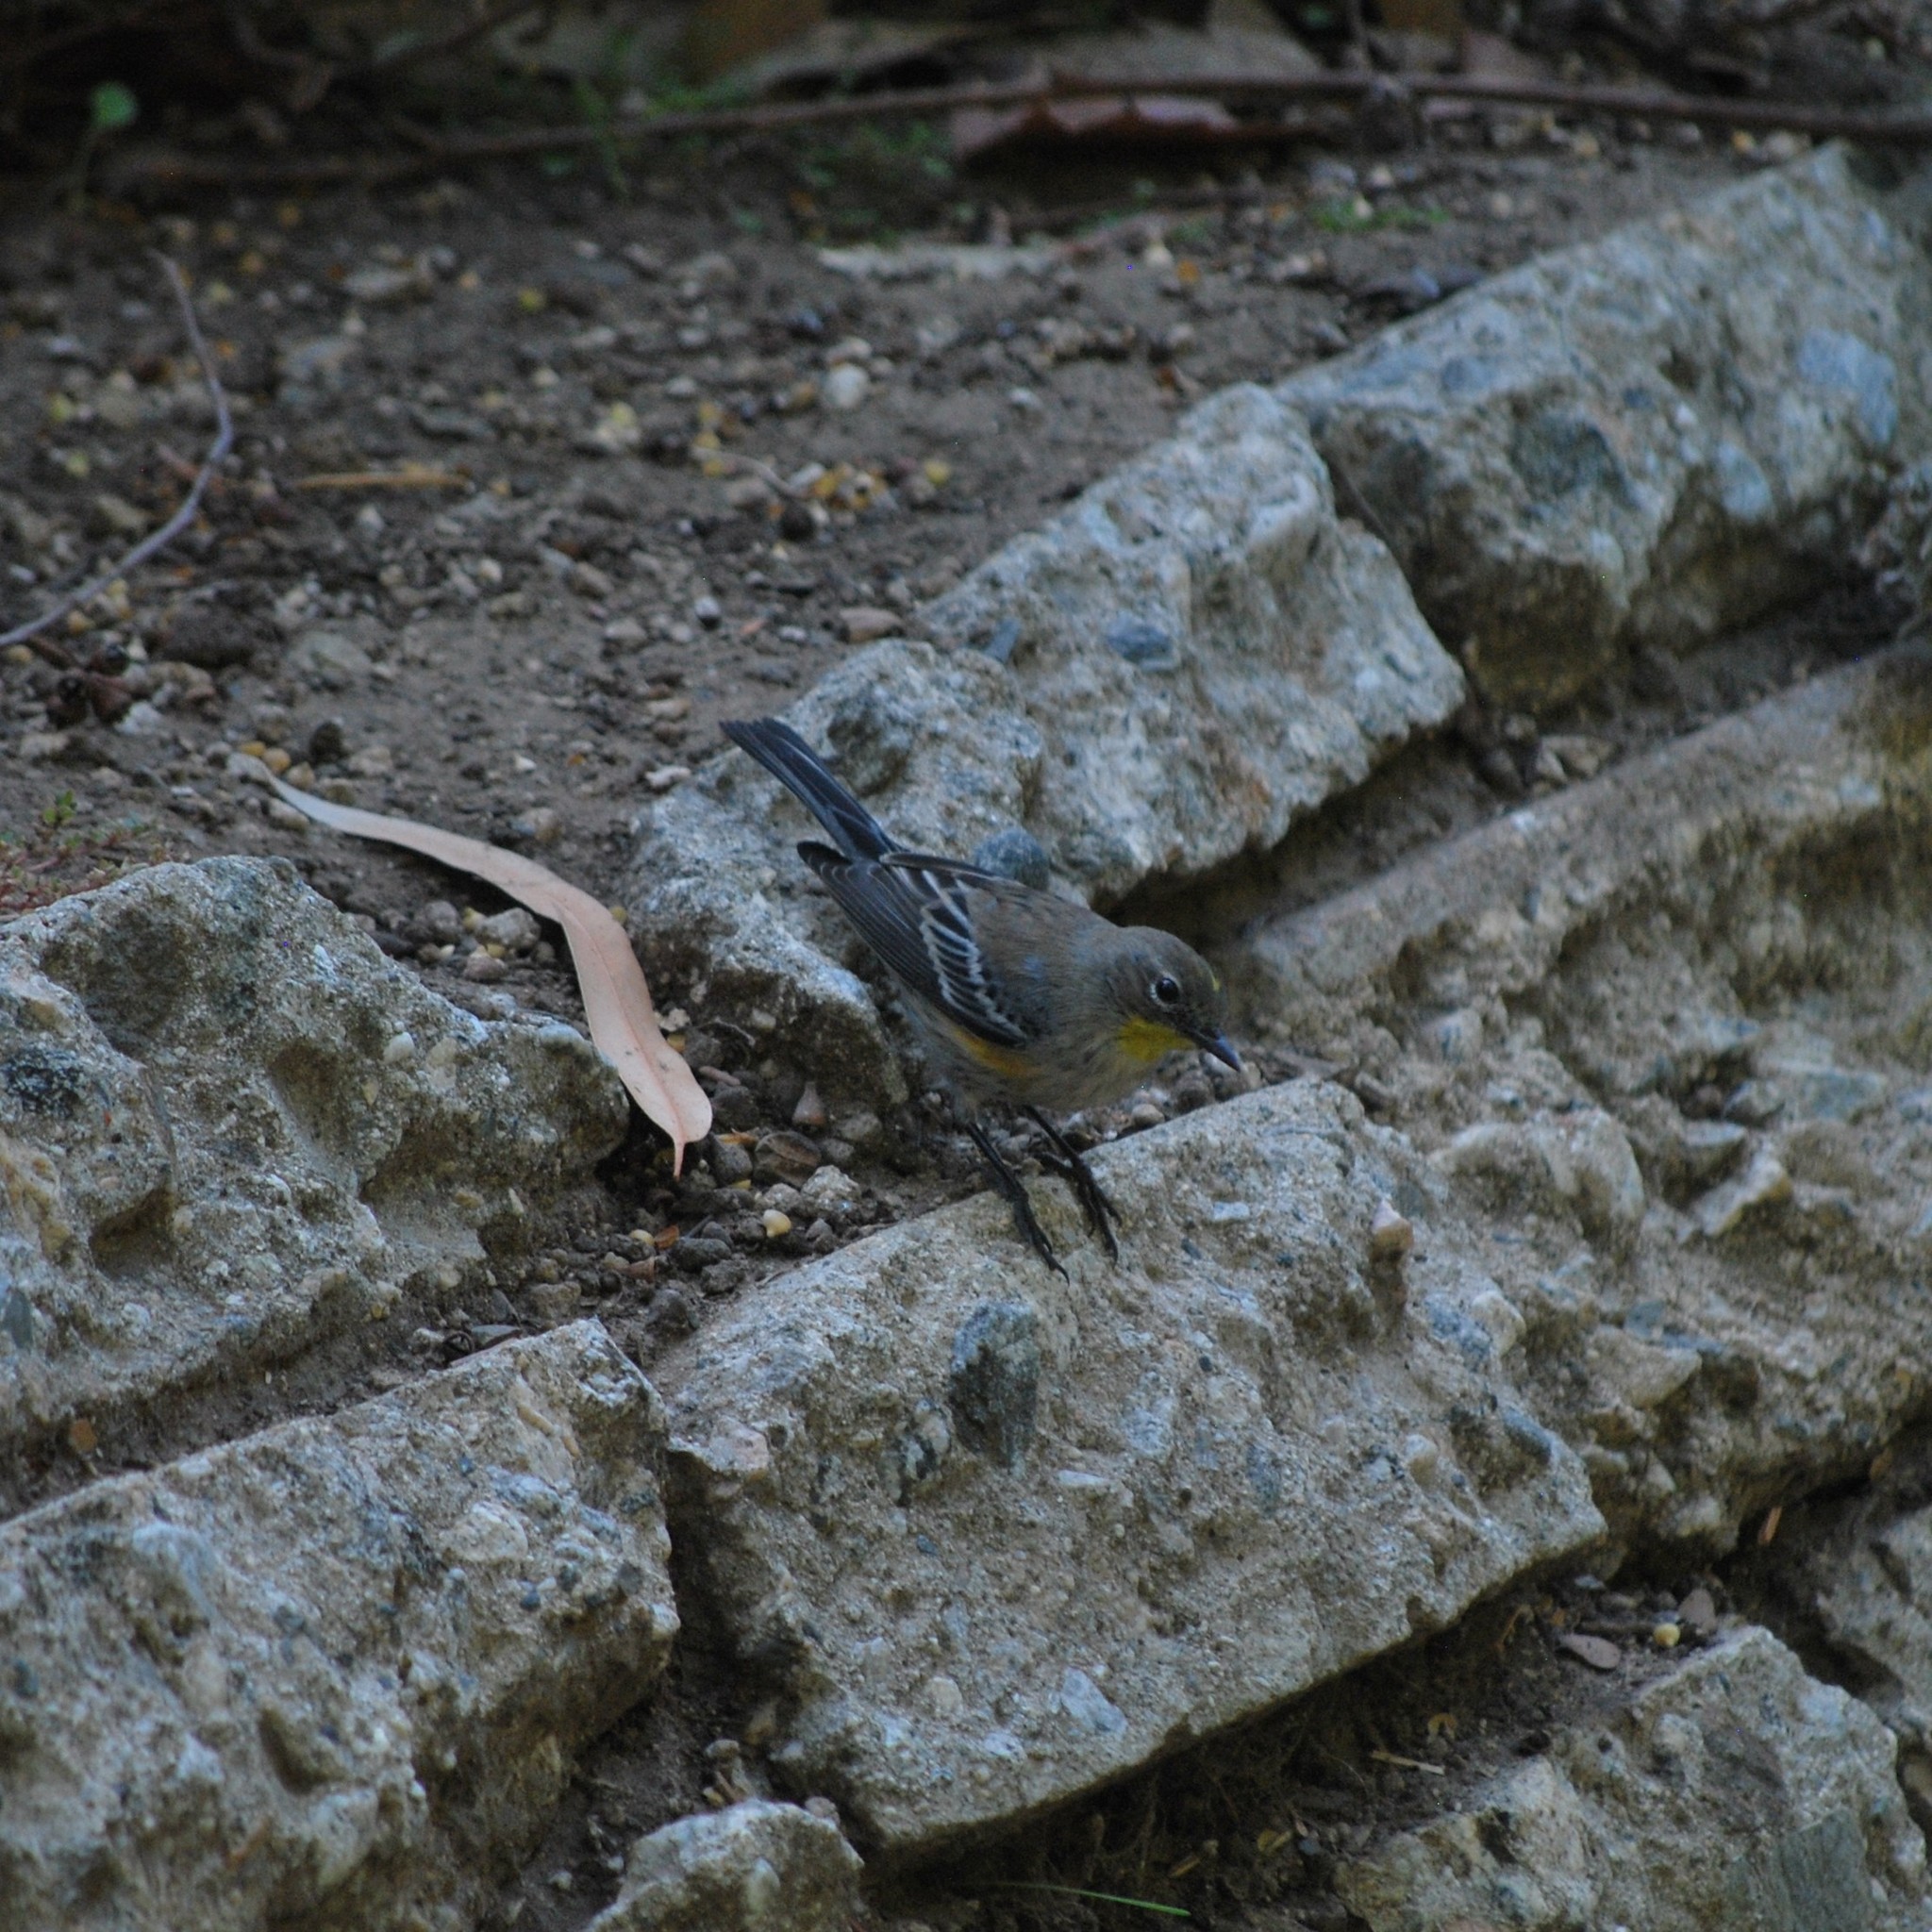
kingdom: Animalia
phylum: Chordata
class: Aves
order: Passeriformes
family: Parulidae
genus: Setophaga
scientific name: Setophaga auduboni
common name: Audubon's warbler
